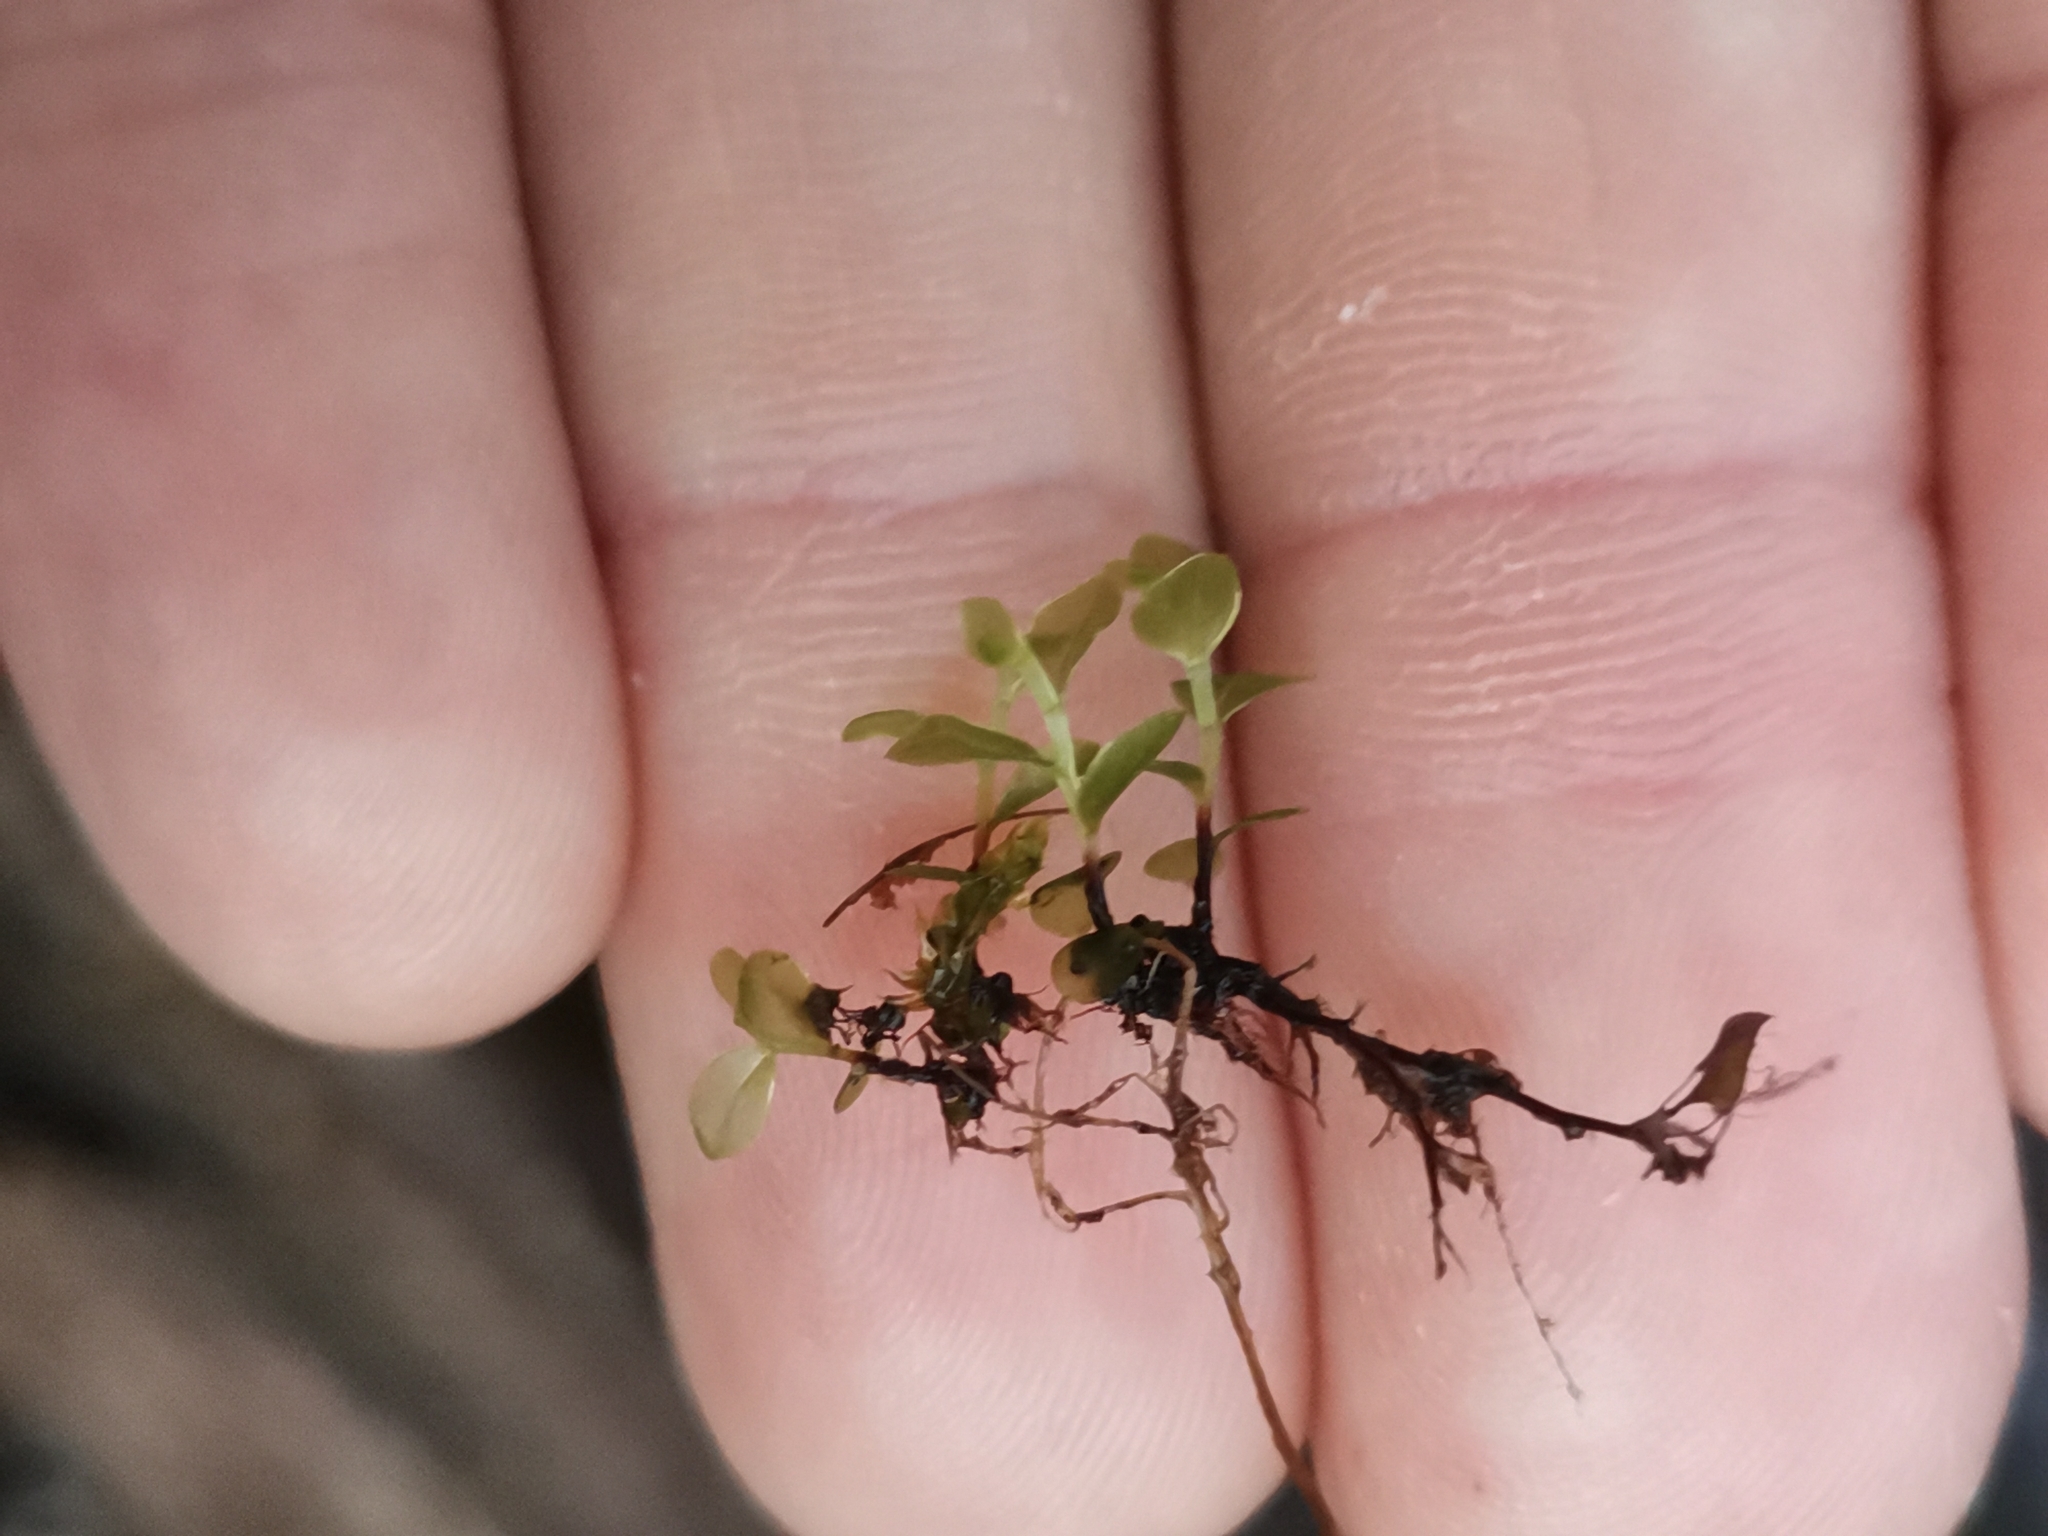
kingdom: Plantae
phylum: Bryophyta
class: Bryopsida
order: Bryales
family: Mniaceae
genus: Rhizomnium
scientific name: Rhizomnium punctatum
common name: Dotted leafy moss
